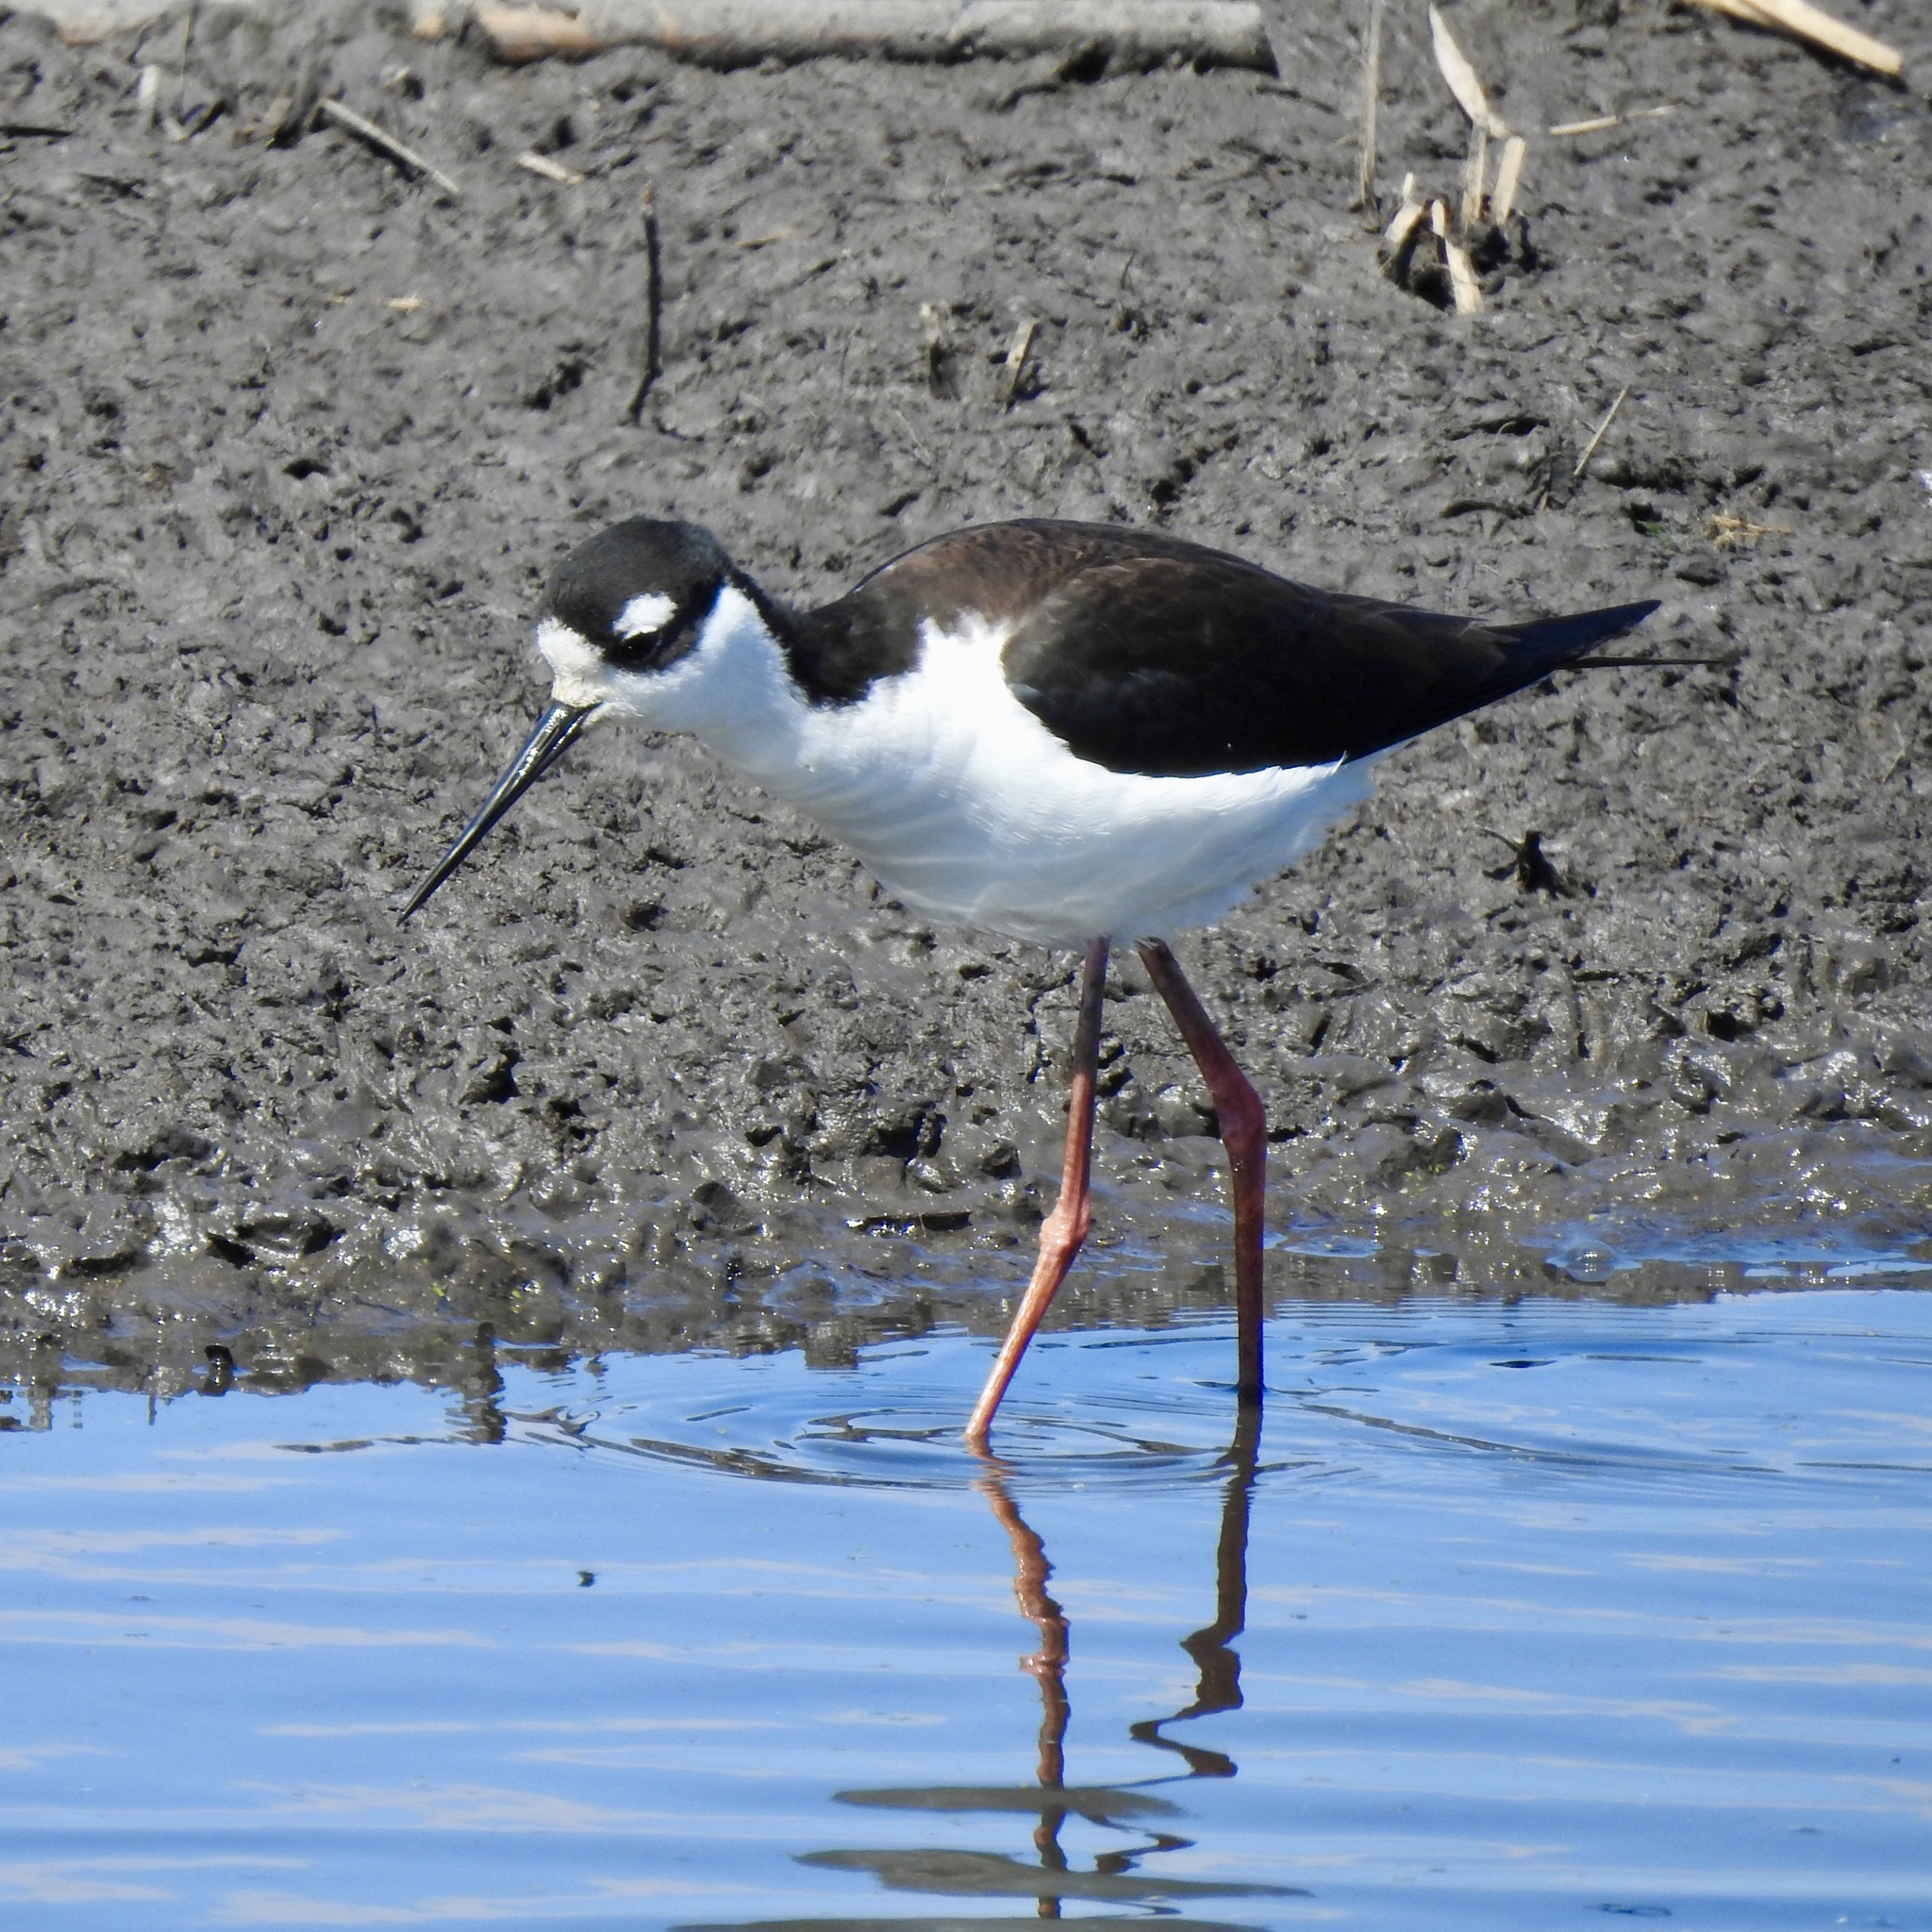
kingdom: Animalia
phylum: Chordata
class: Aves
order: Charadriiformes
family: Recurvirostridae
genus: Himantopus
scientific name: Himantopus mexicanus
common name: Black-necked stilt
